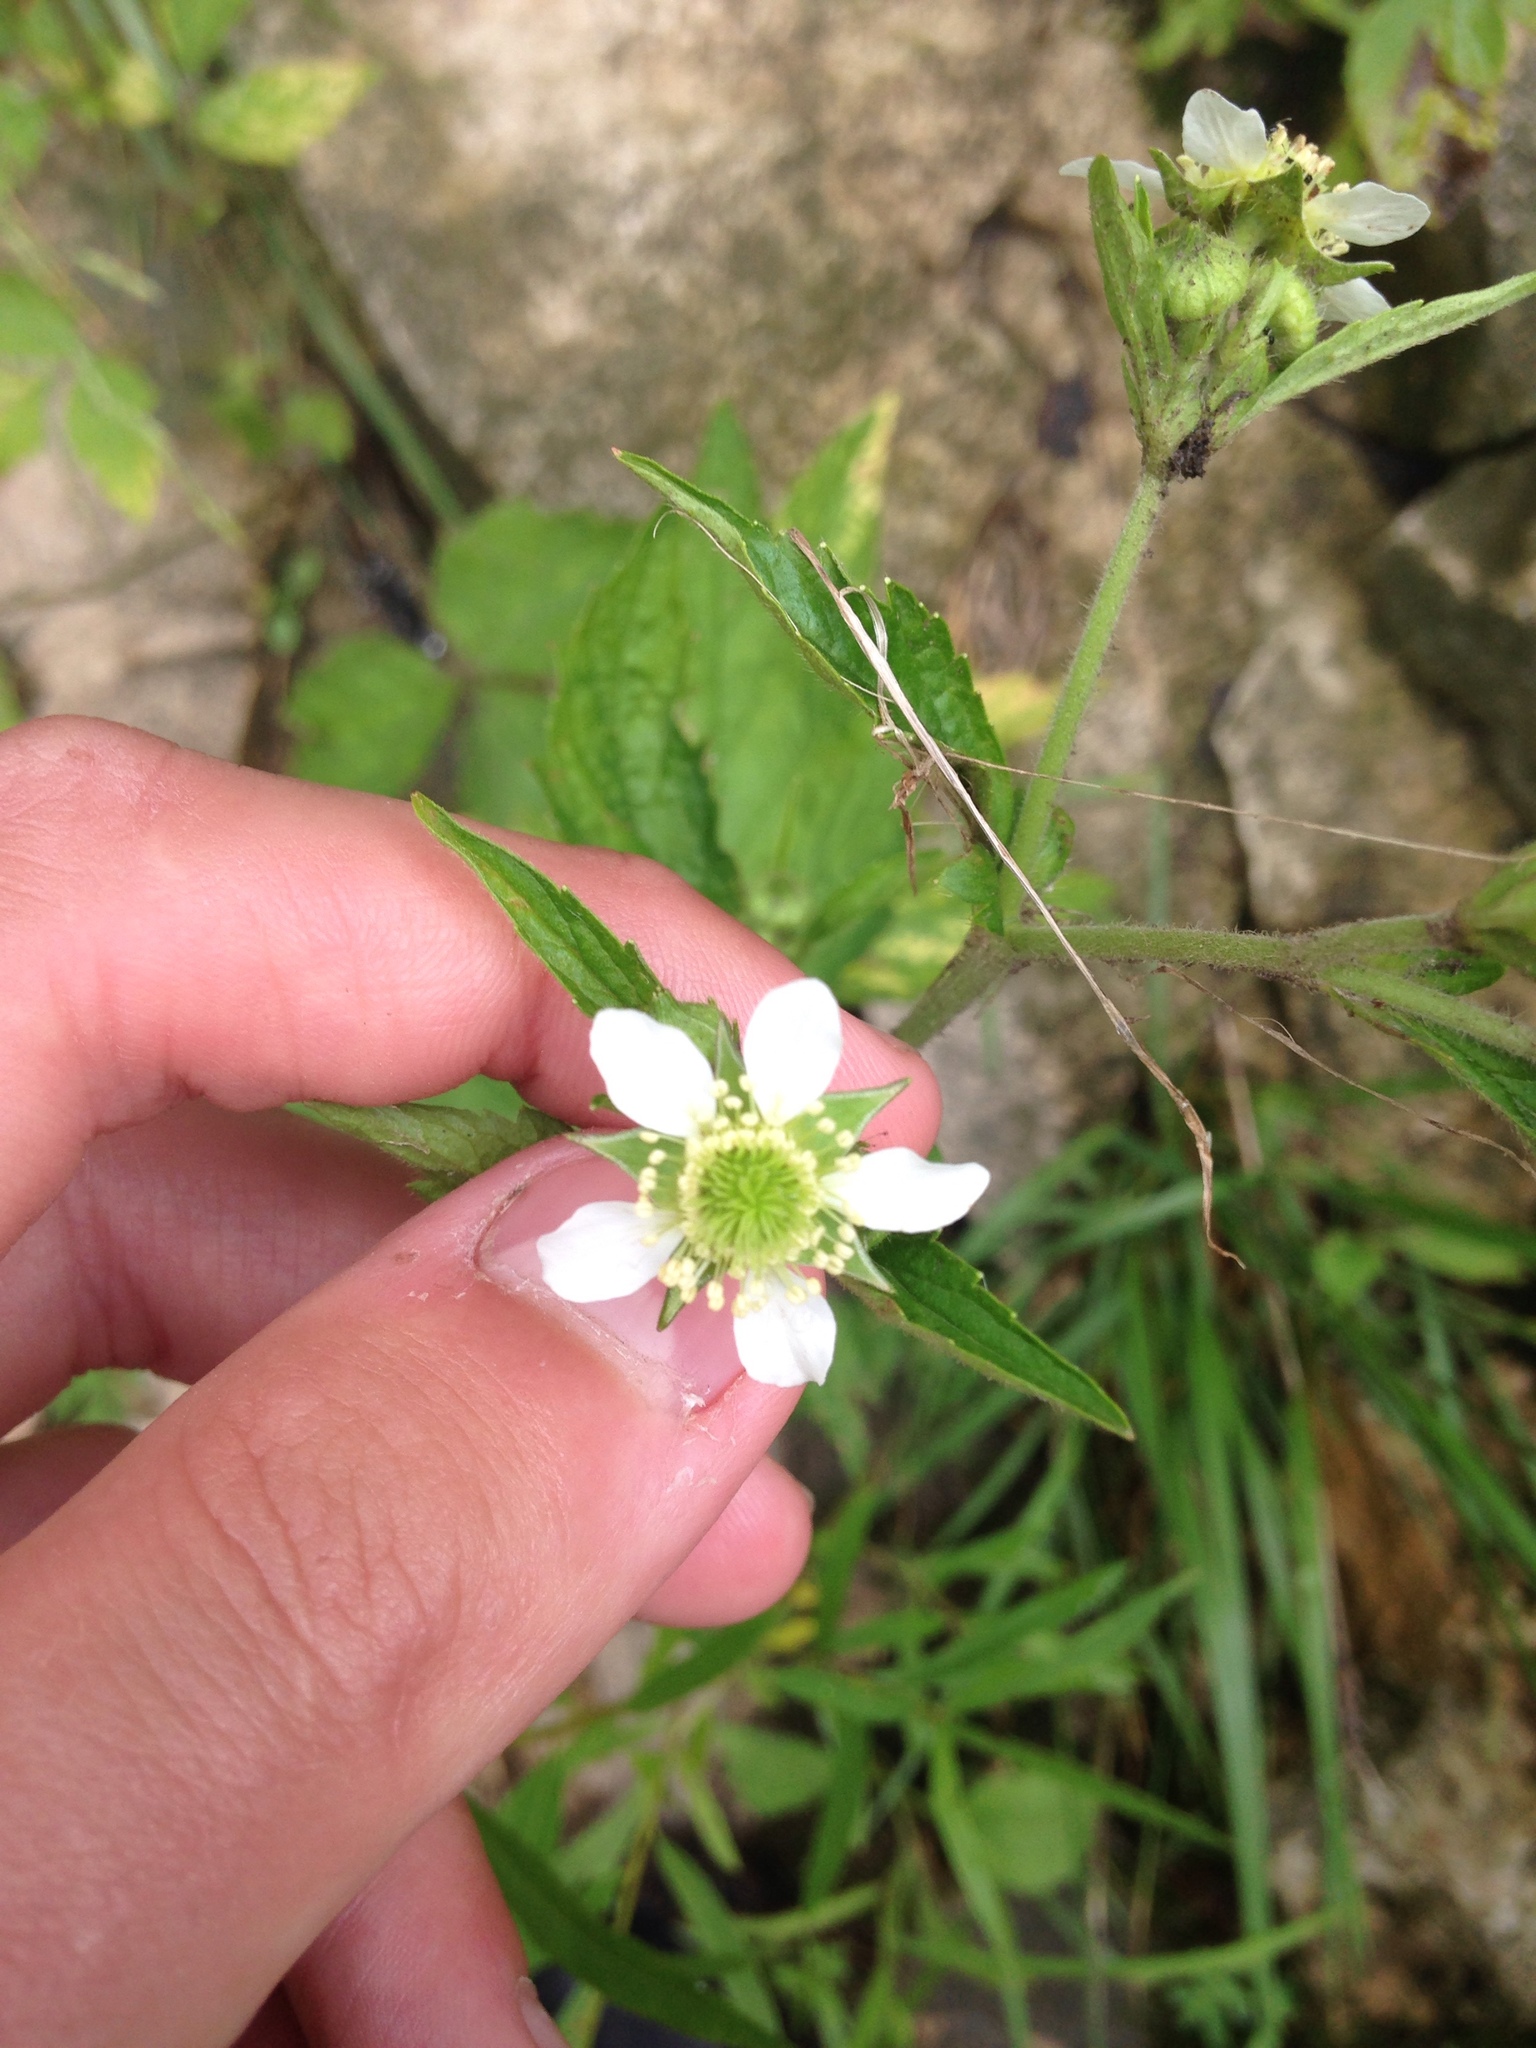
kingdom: Plantae
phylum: Tracheophyta
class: Magnoliopsida
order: Rosales
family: Rosaceae
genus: Geum
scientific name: Geum canadense
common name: White avens
